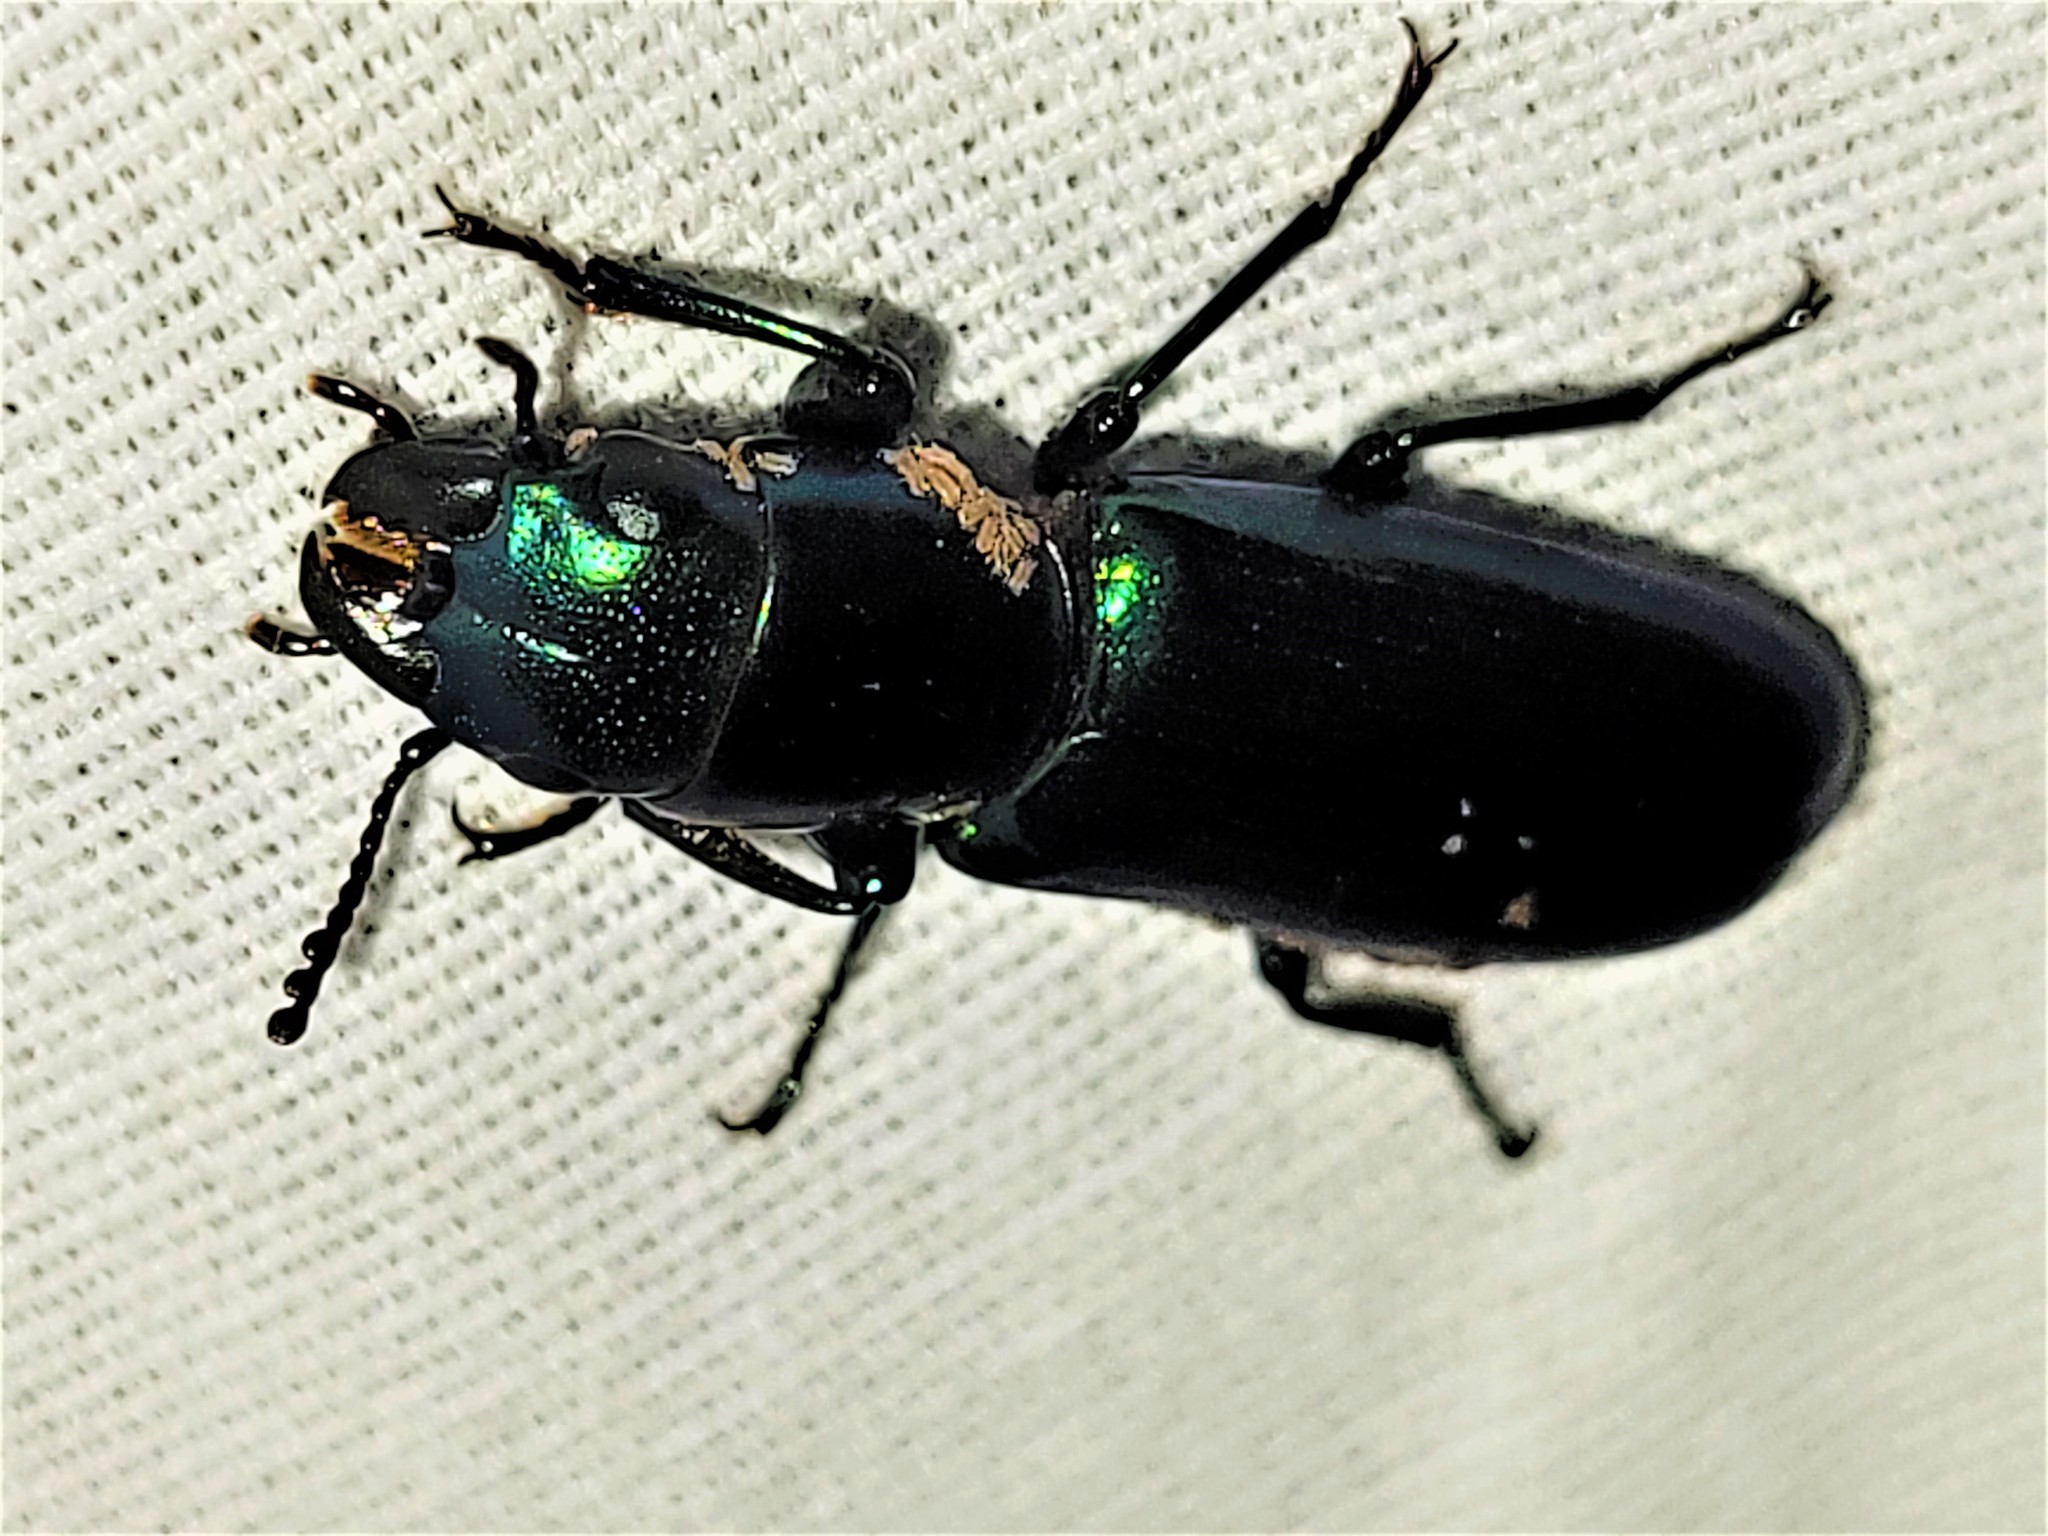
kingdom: Animalia
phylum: Arthropoda
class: Insecta
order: Coleoptera
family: Trogossitidae
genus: Temnoscheila
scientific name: Temnoscheila
